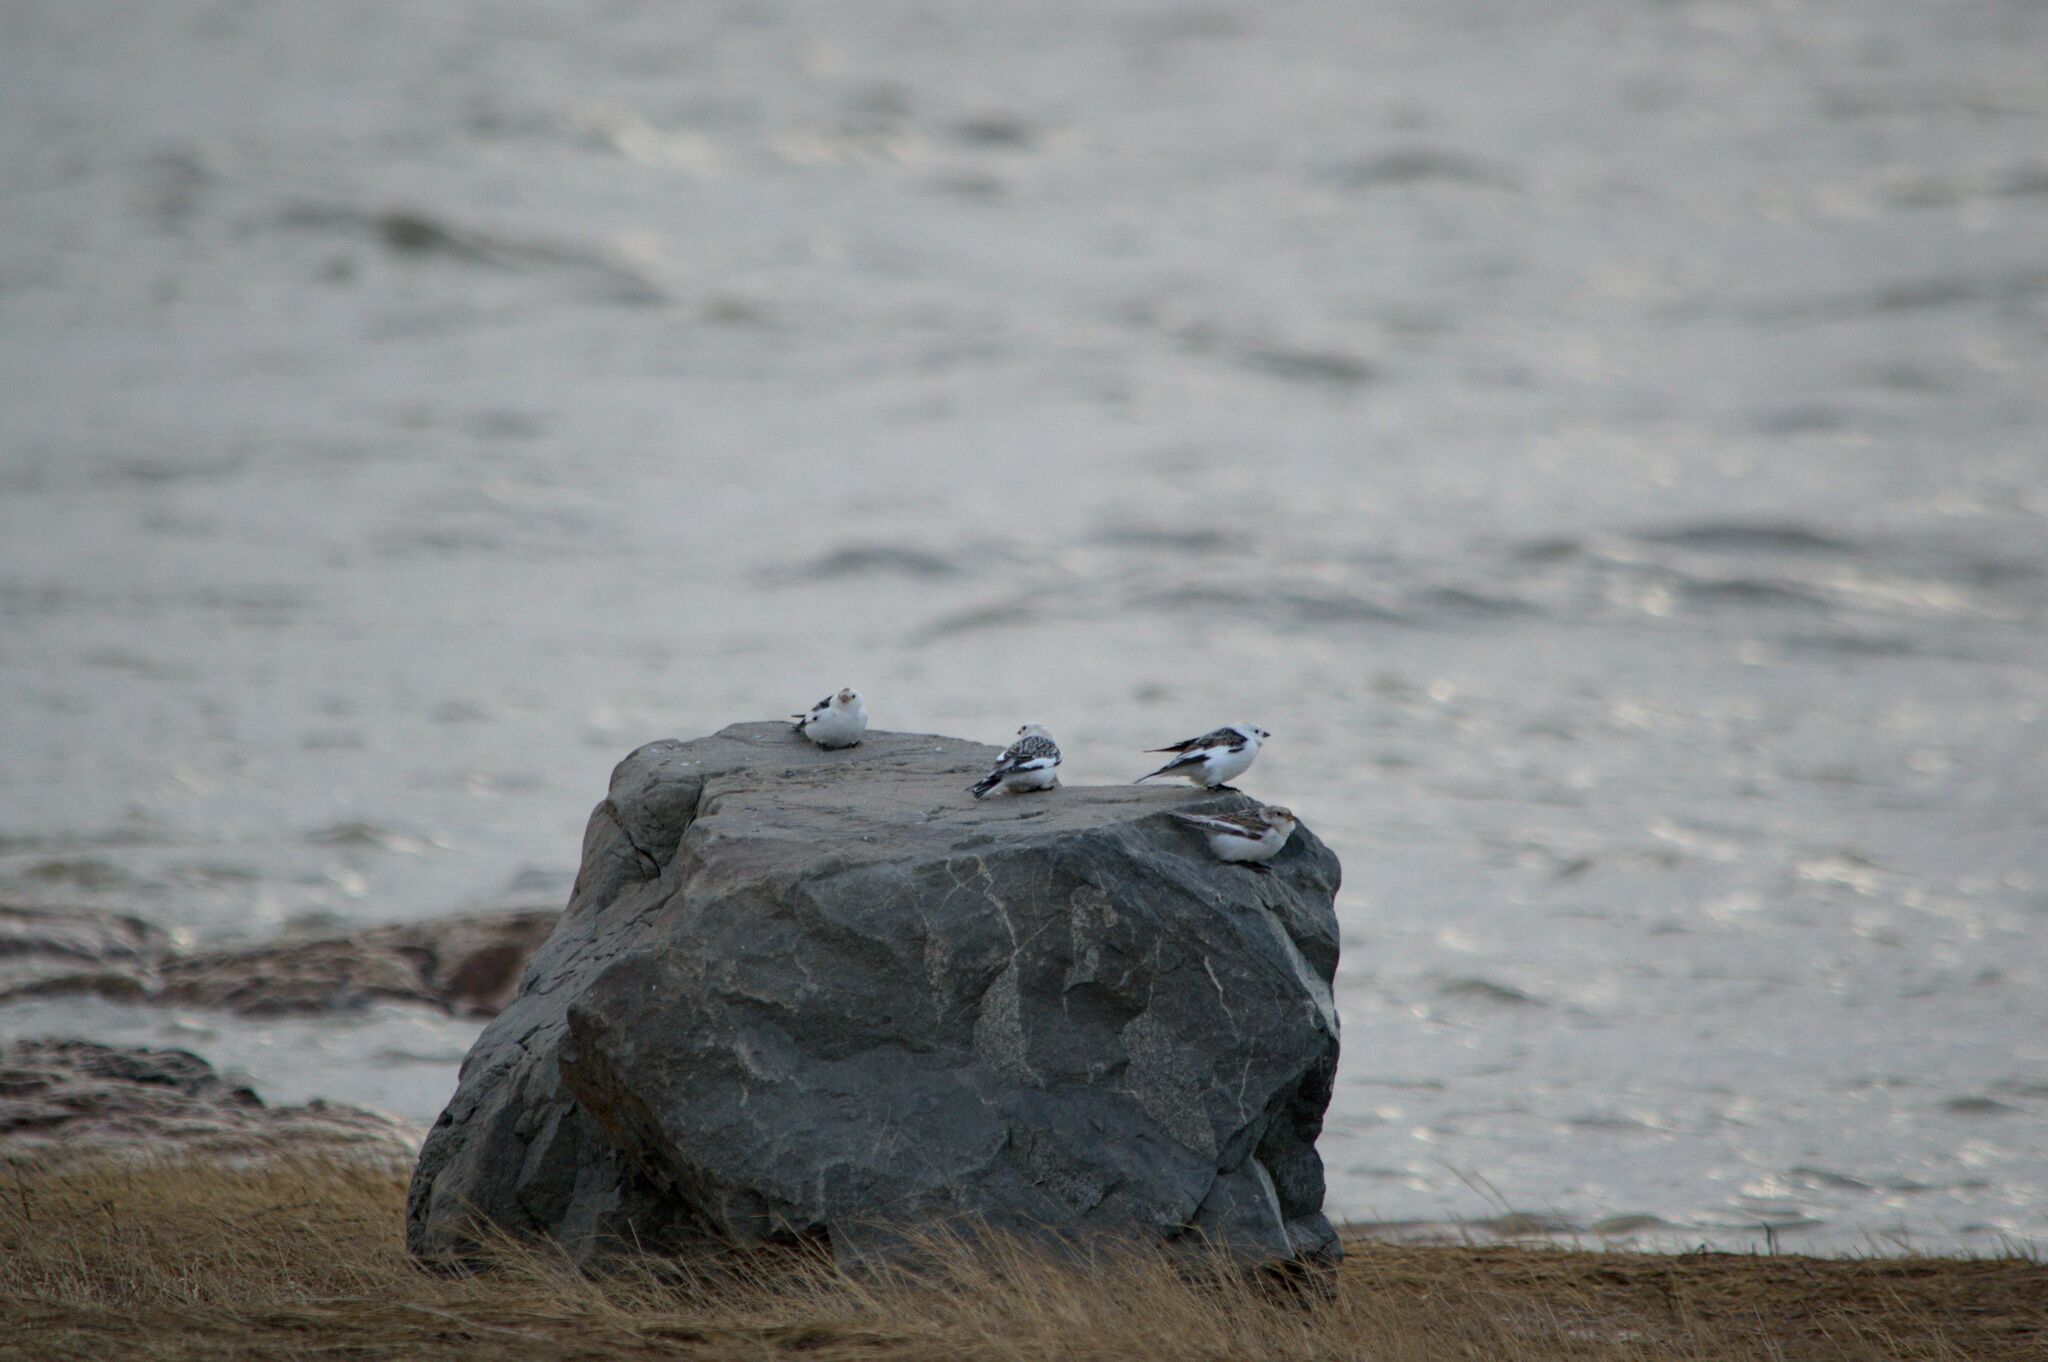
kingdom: Animalia
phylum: Chordata
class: Aves
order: Passeriformes
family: Calcariidae
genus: Plectrophenax
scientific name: Plectrophenax nivalis
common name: Snow bunting
